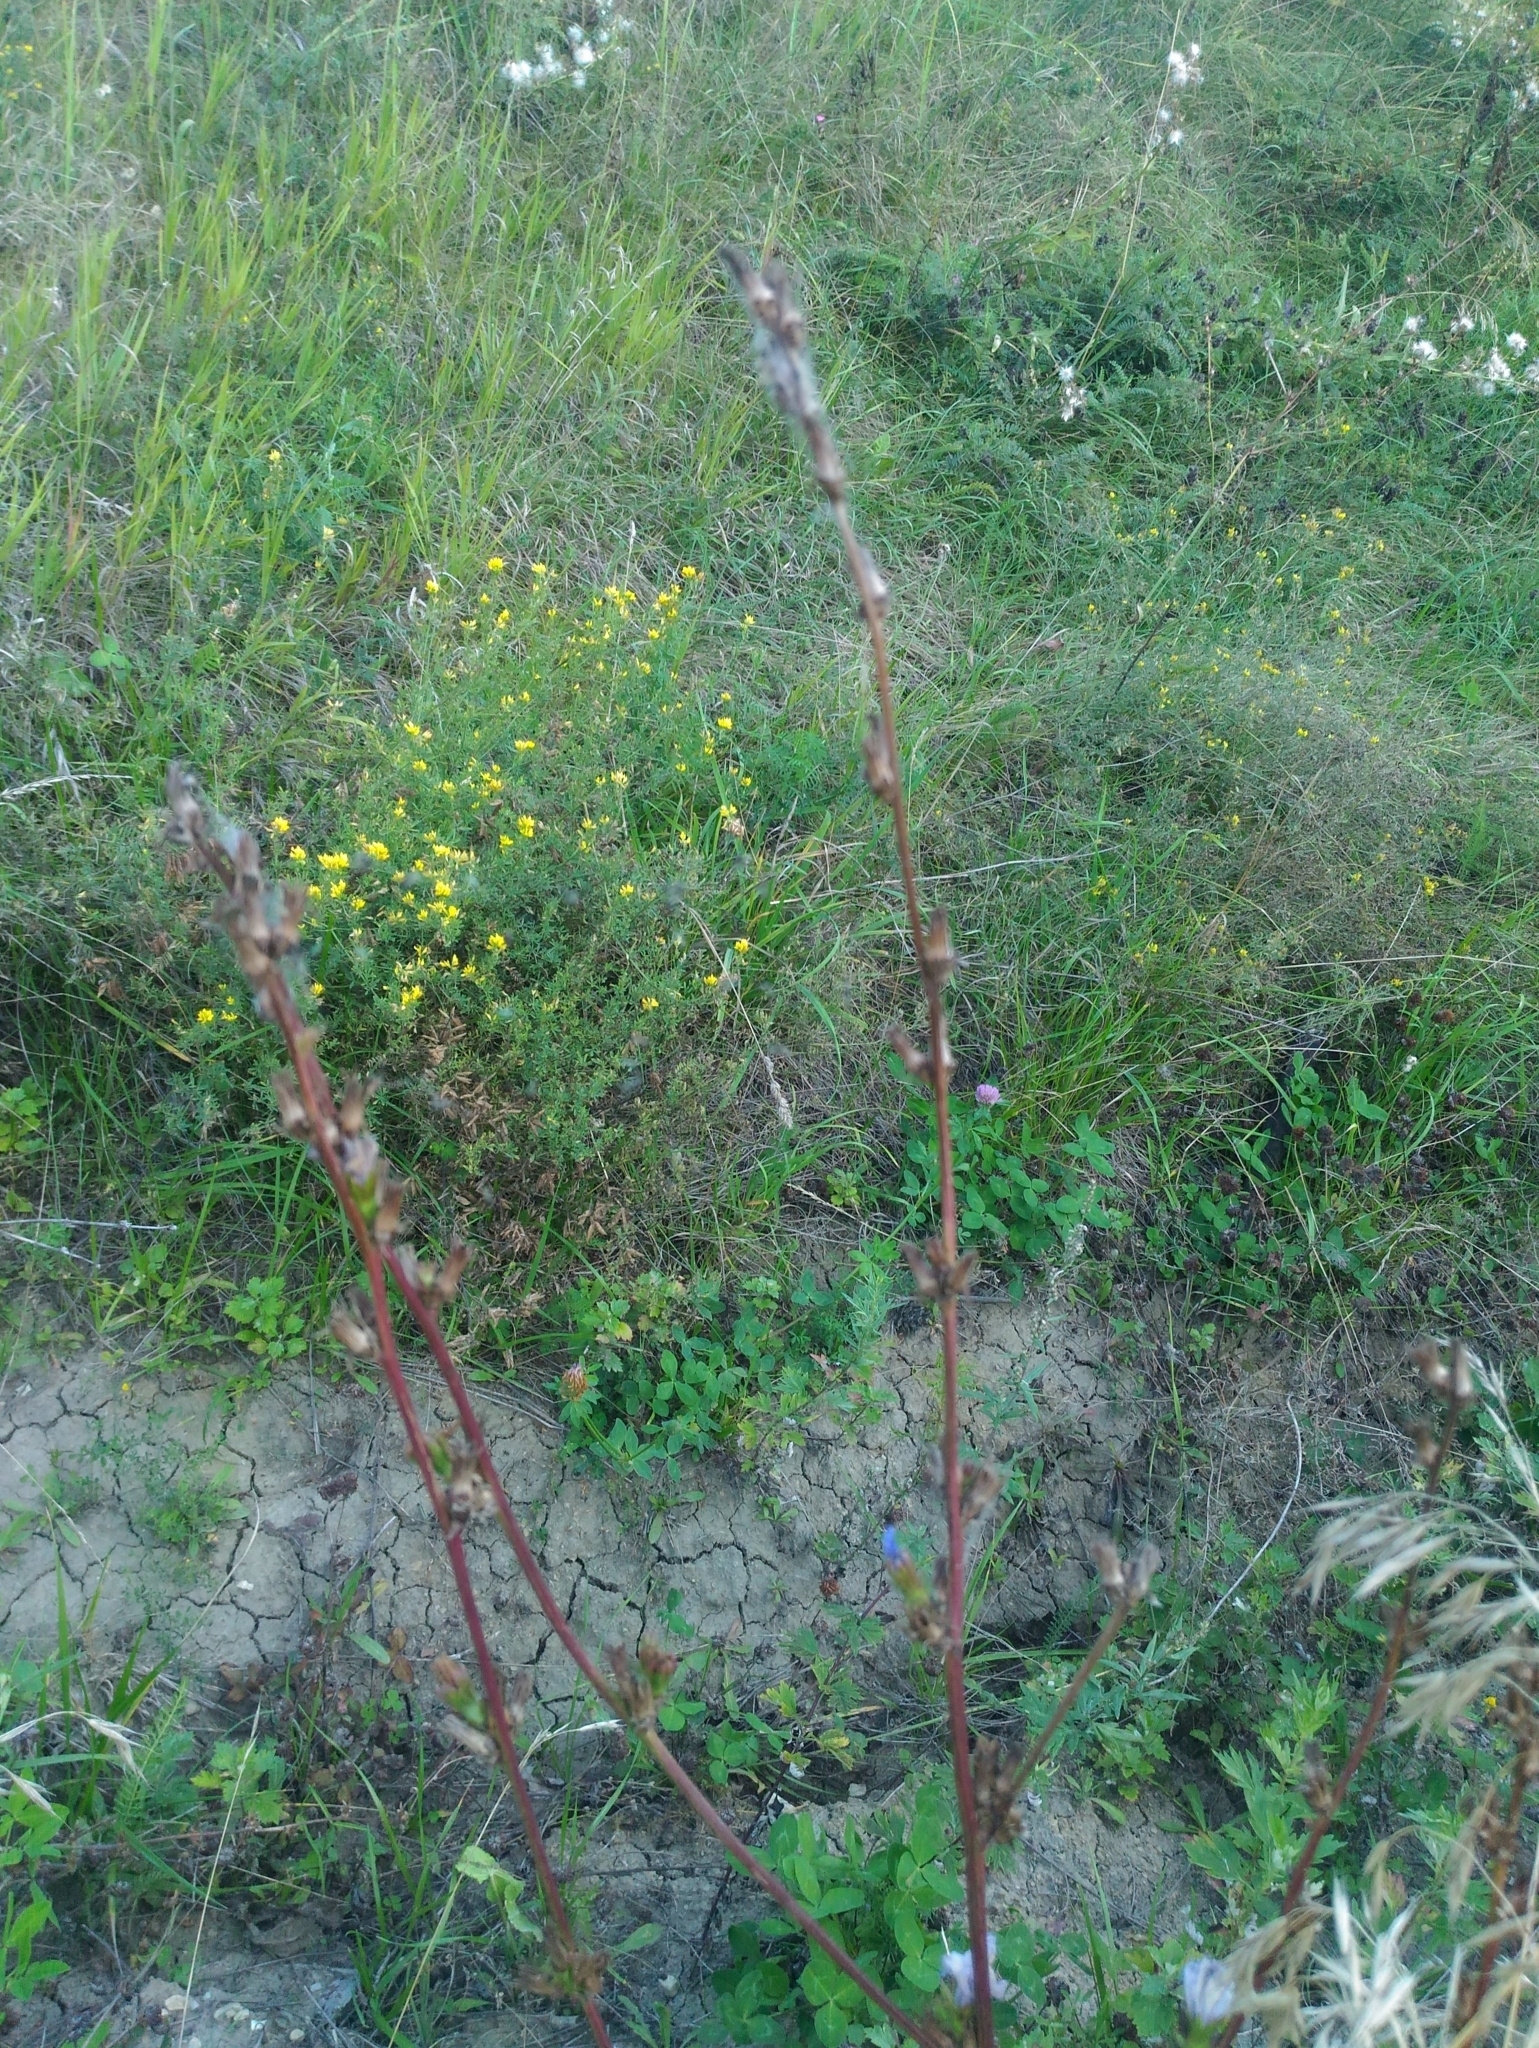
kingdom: Plantae
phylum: Tracheophyta
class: Magnoliopsida
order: Asterales
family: Asteraceae
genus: Cichorium
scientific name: Cichorium intybus
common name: Chicory
